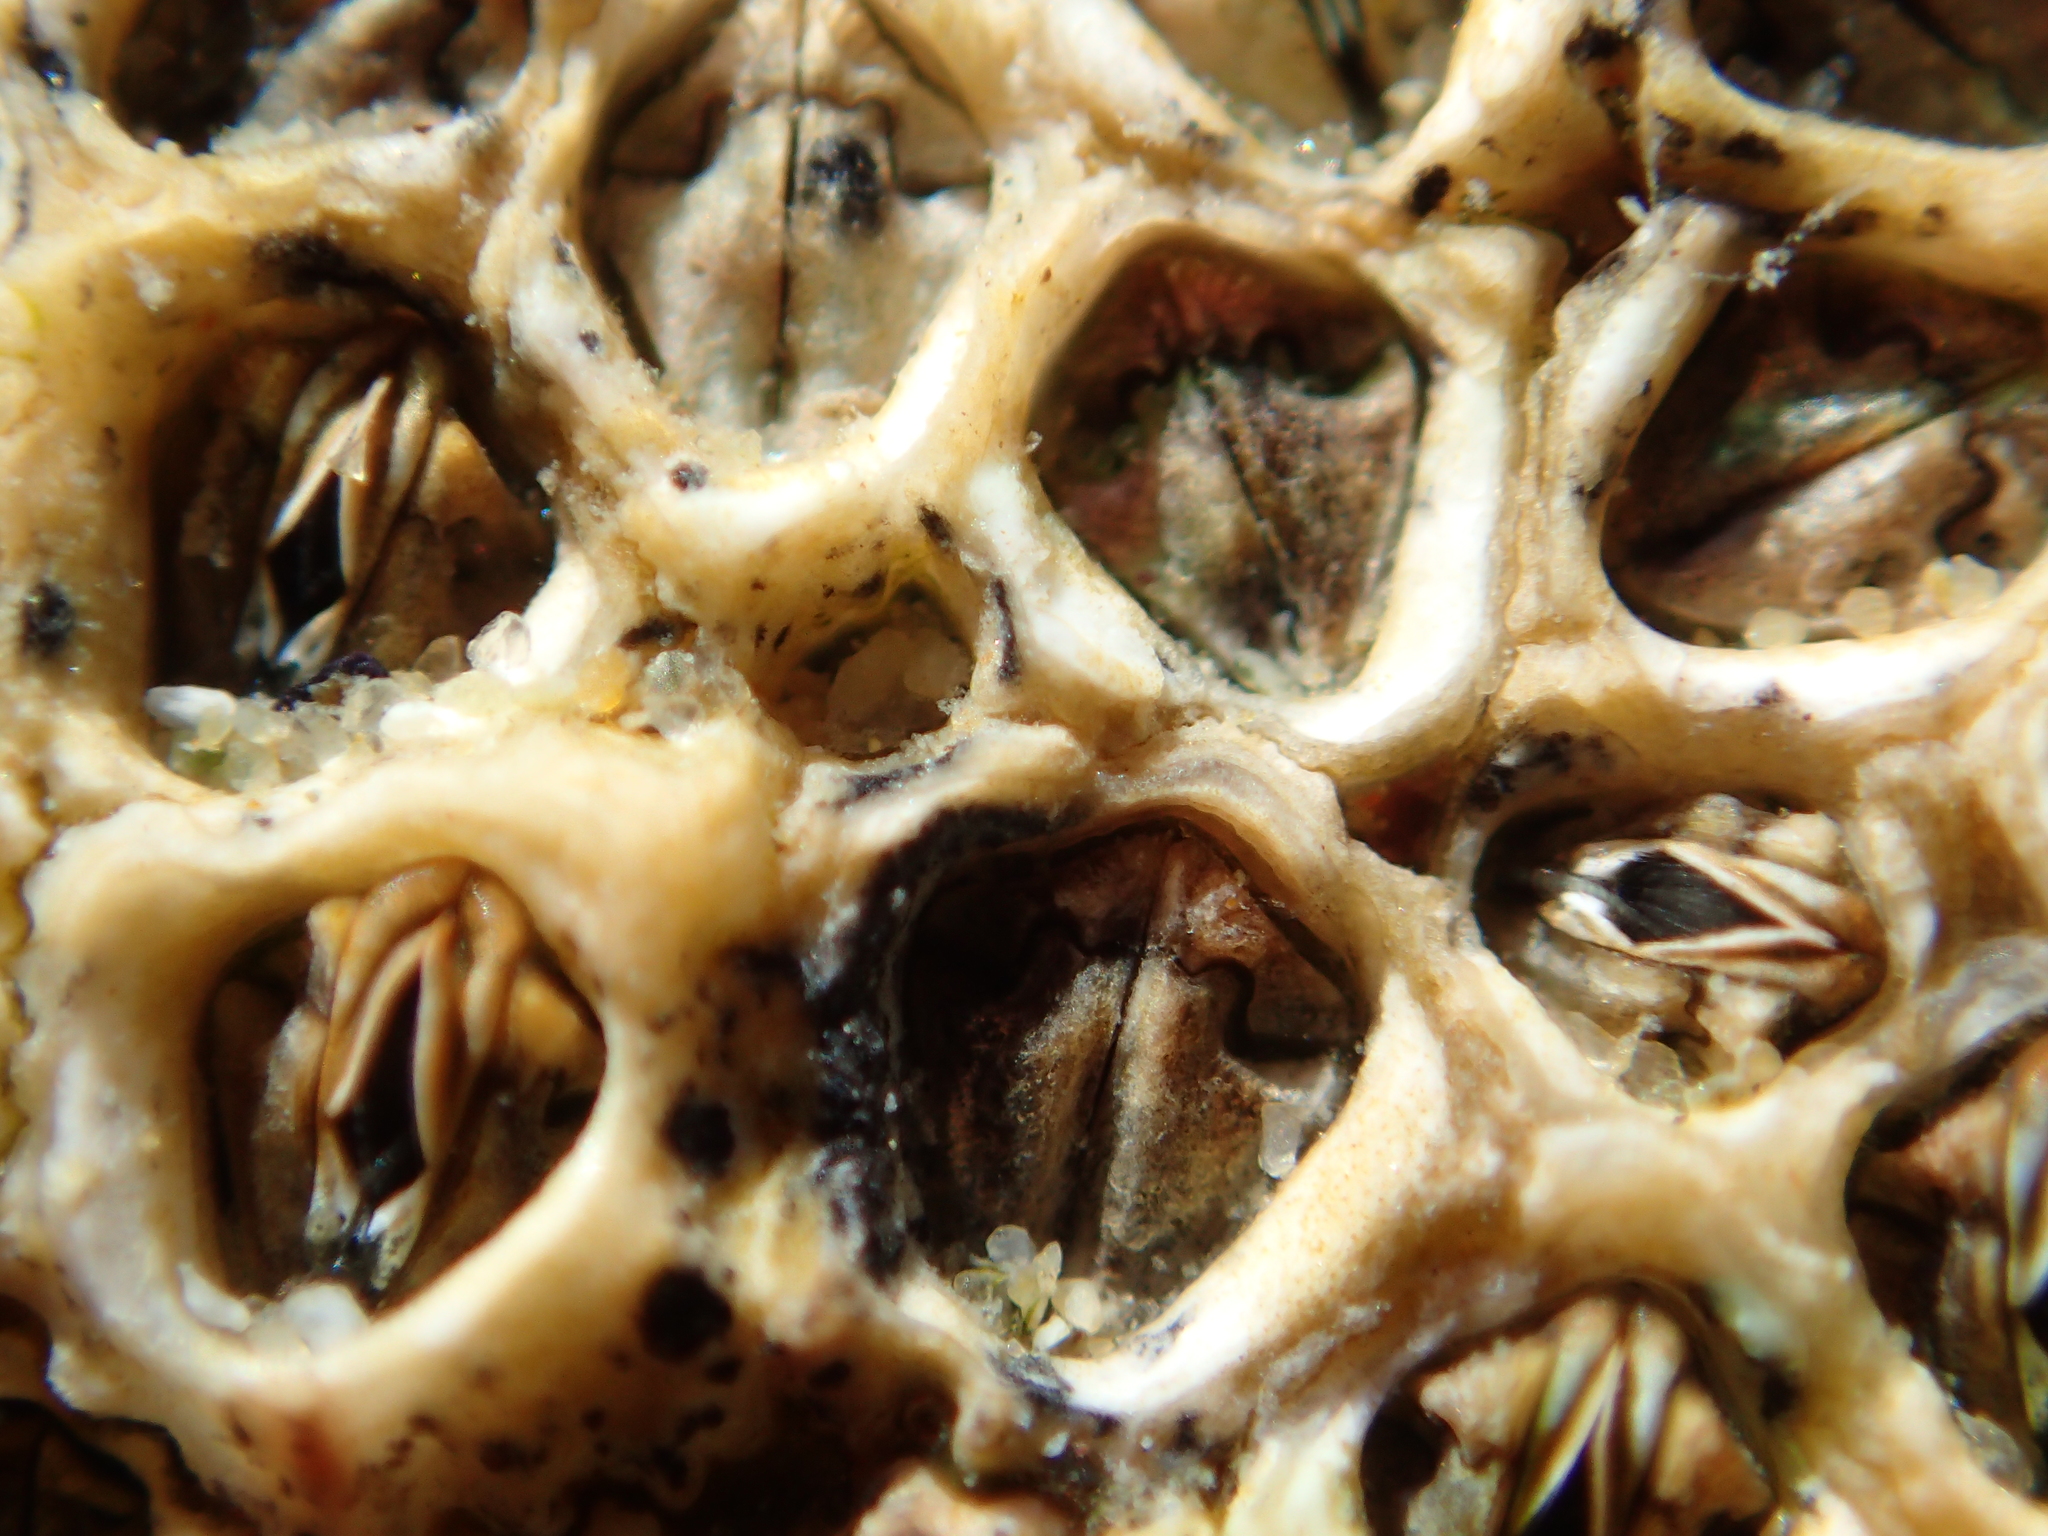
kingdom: Animalia
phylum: Arthropoda
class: Maxillopoda
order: Sessilia
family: Chthamalidae
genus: Chamaesipho
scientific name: Chamaesipho columna
